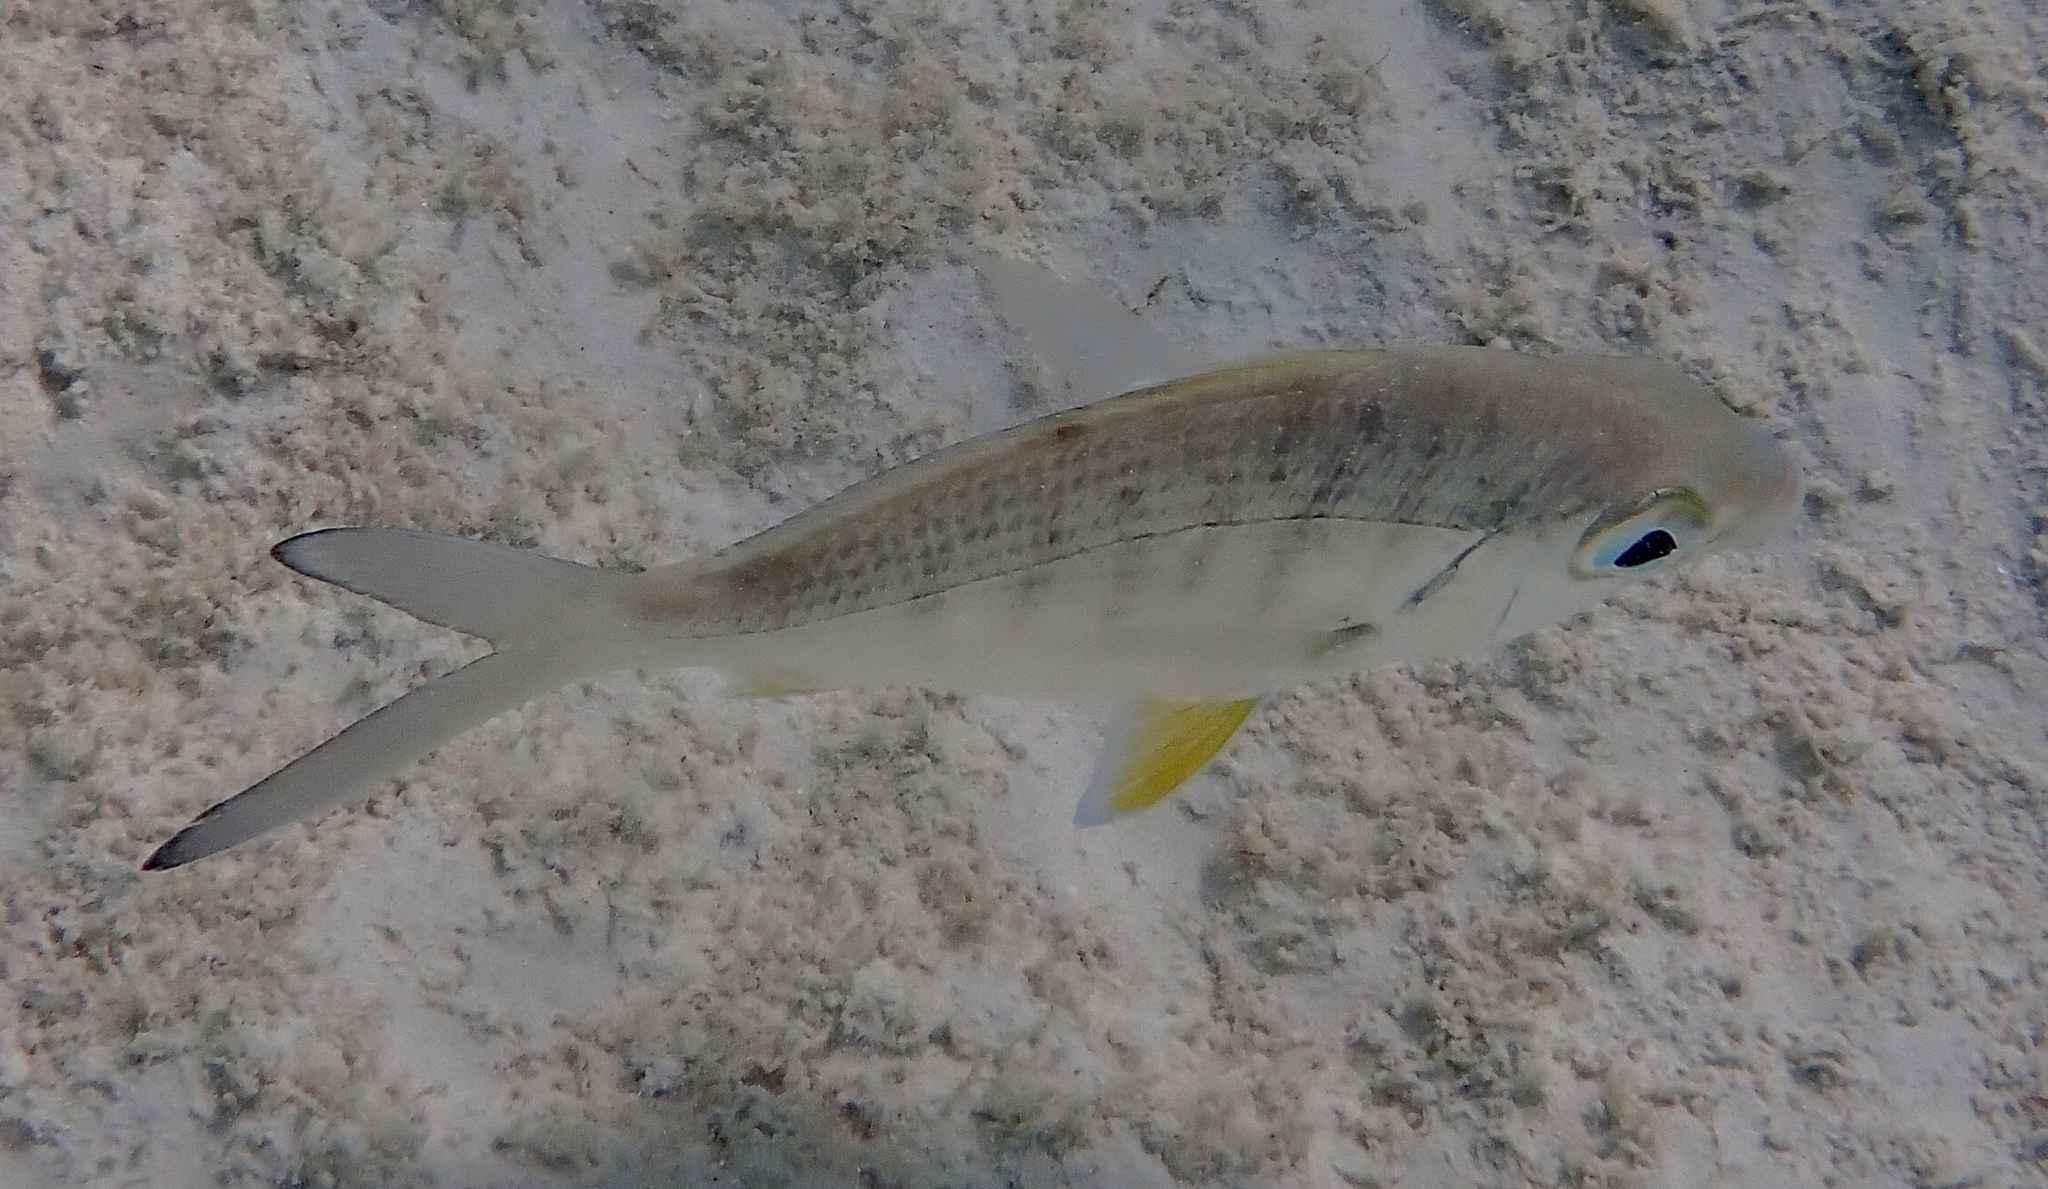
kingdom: Animalia
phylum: Chordata
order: Perciformes
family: Gerreidae
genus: Gerres
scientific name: Gerres cinereus
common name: Hedow
